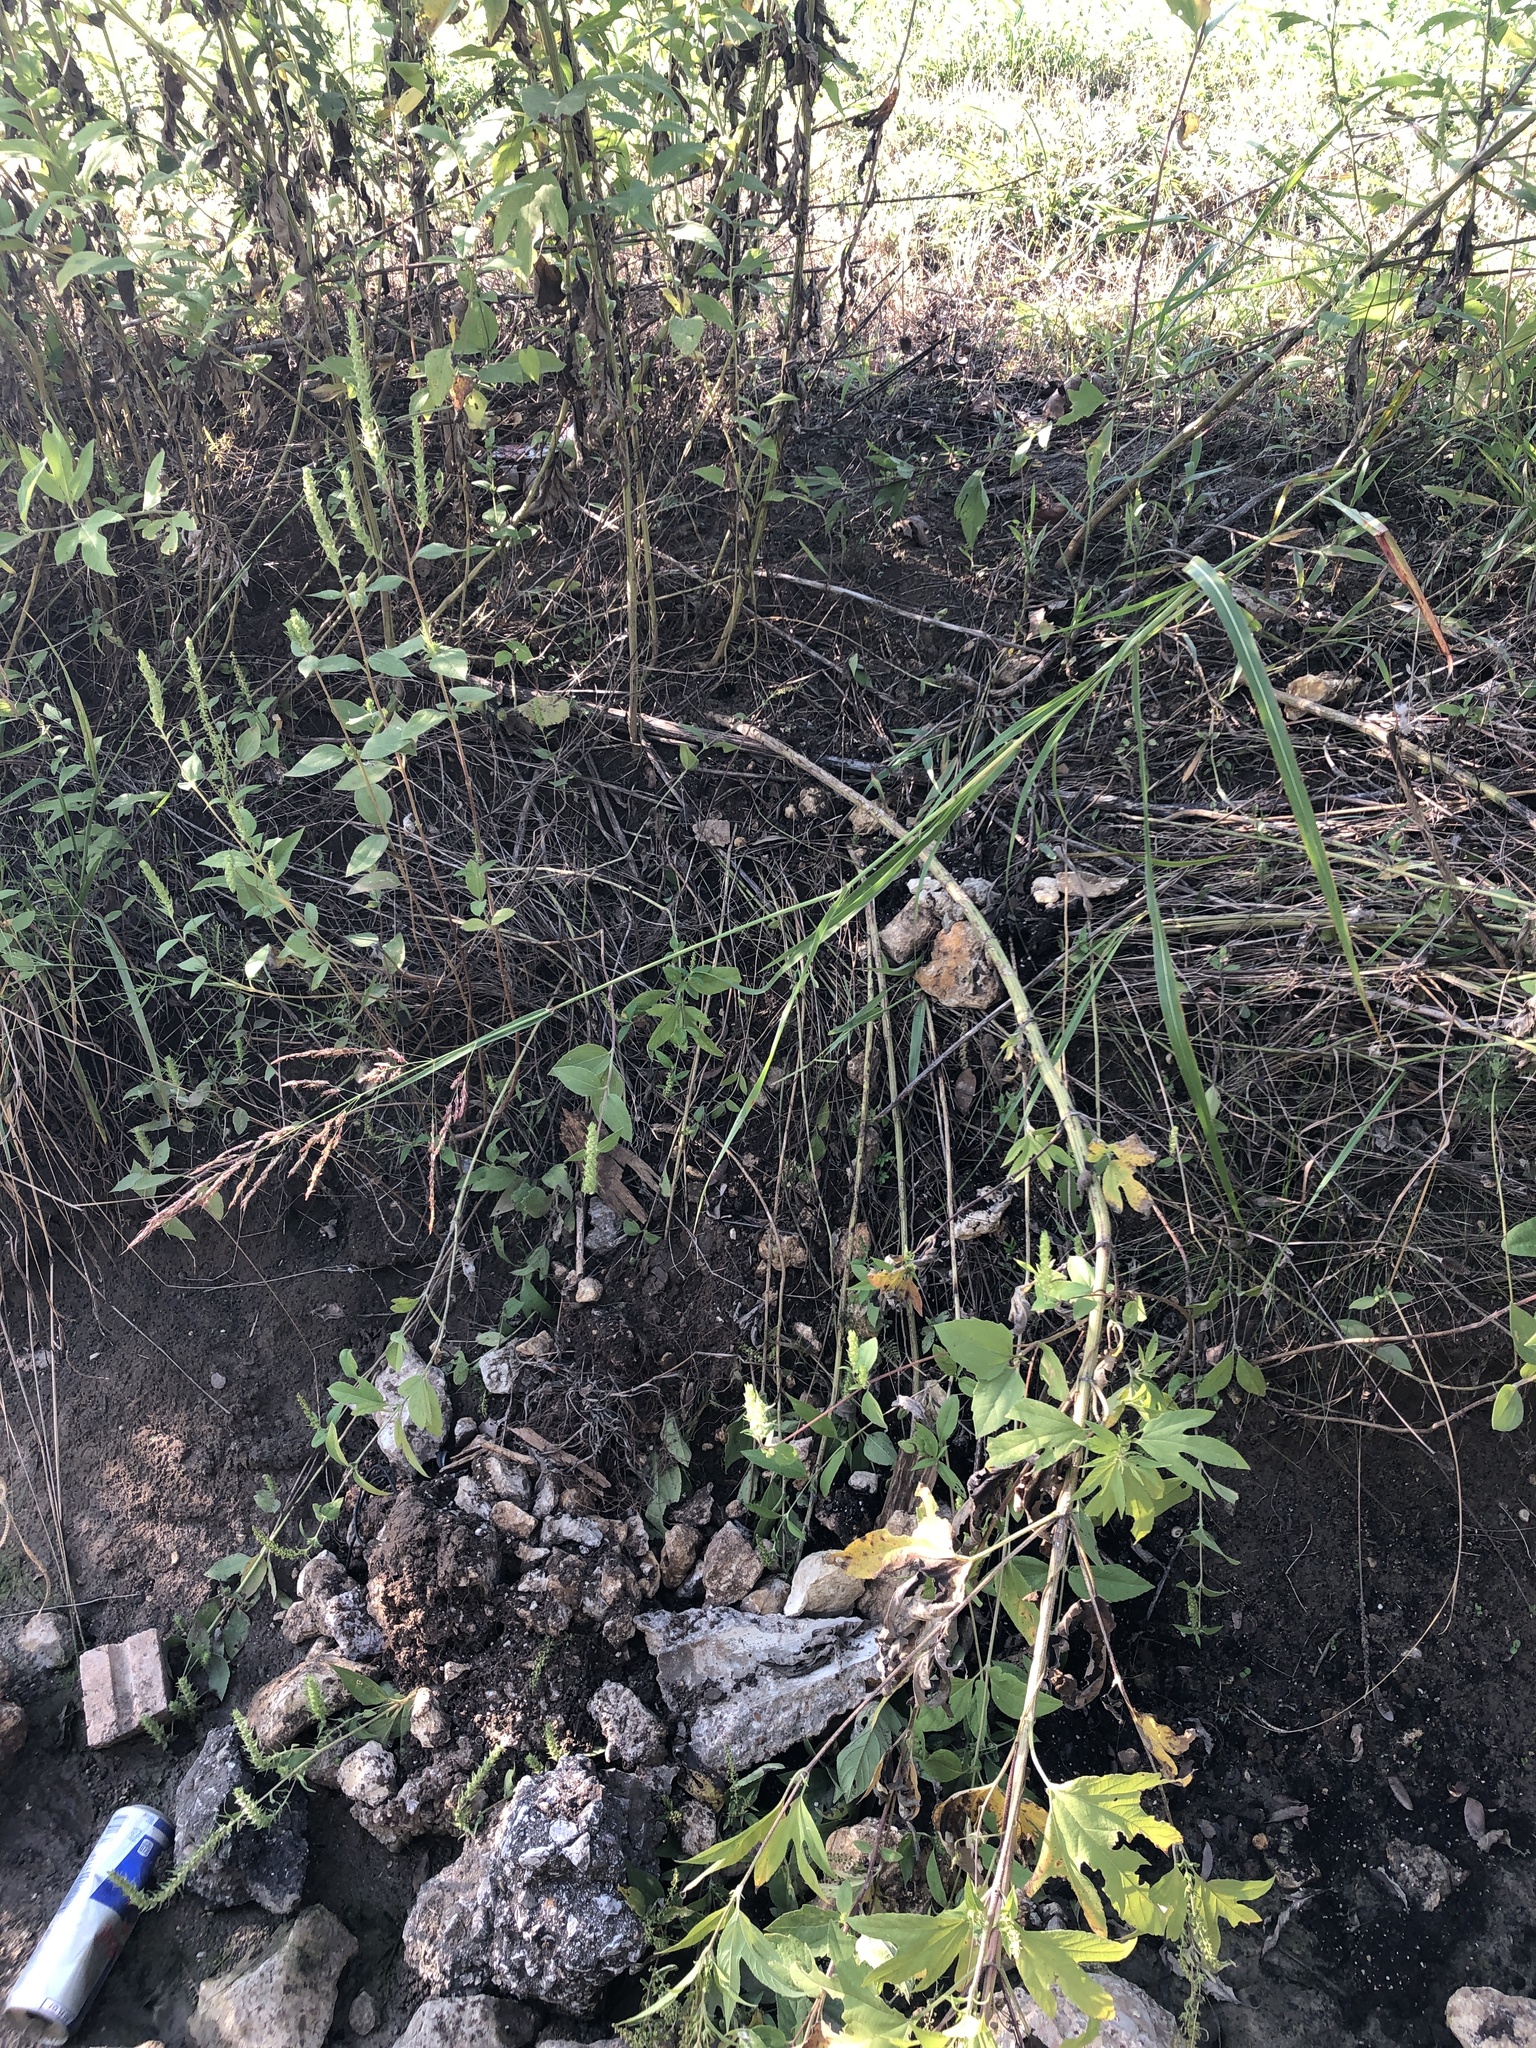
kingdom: Plantae
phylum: Tracheophyta
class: Liliopsida
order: Poales
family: Poaceae
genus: Sorghum
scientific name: Sorghum halepense
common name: Johnson-grass
